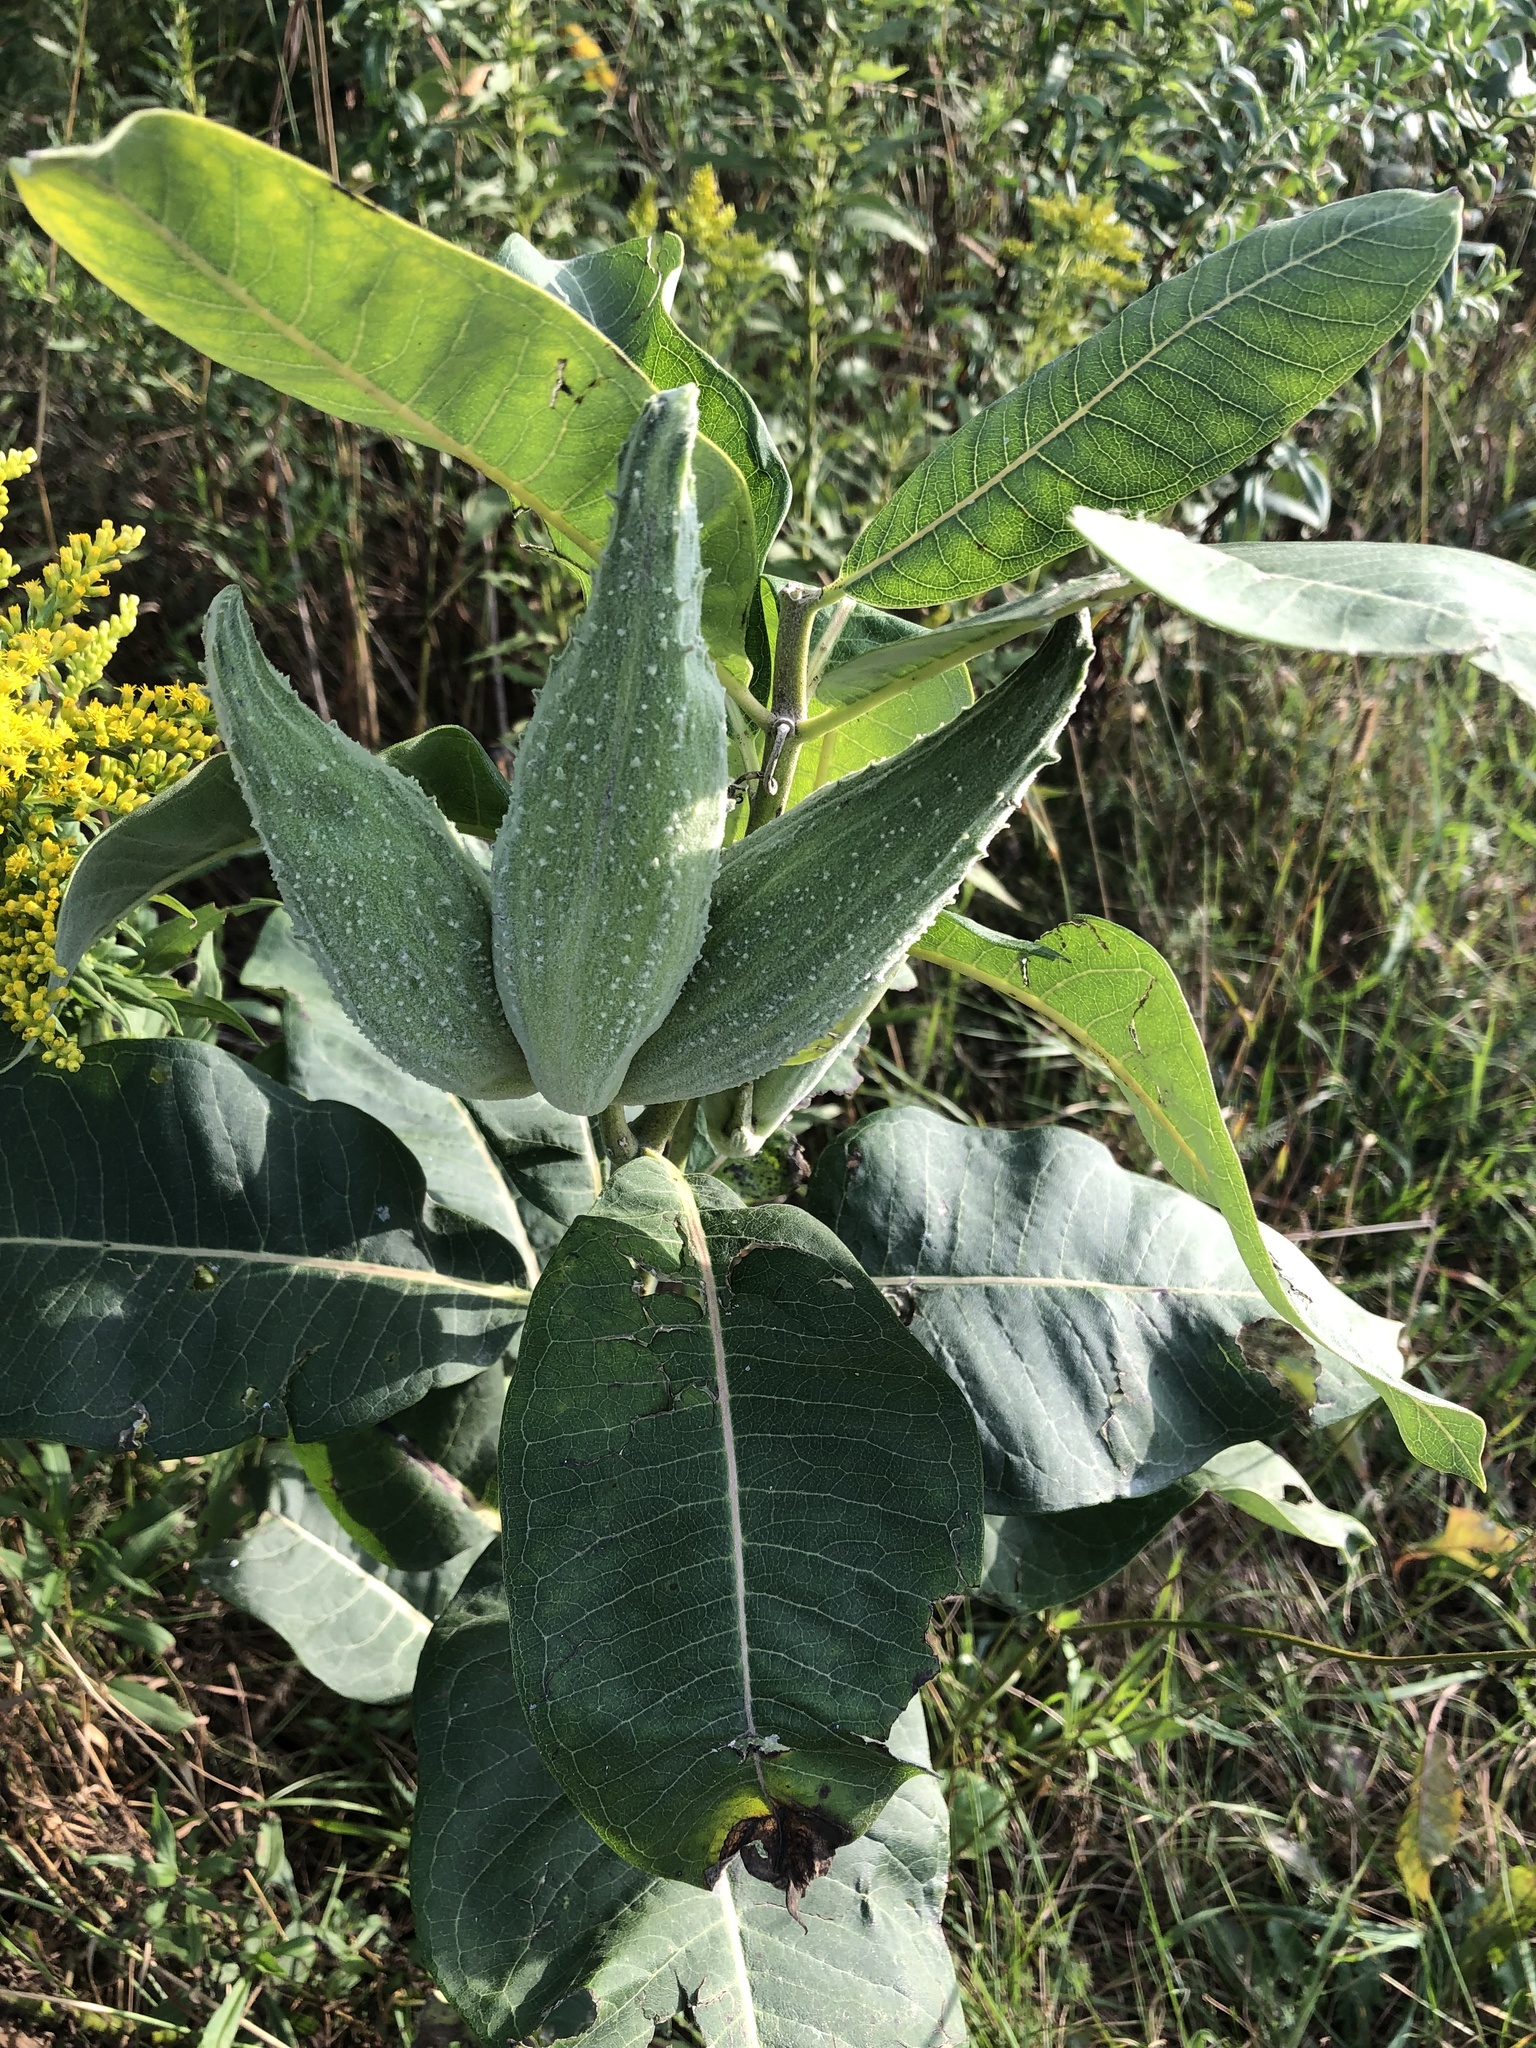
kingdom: Plantae
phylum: Tracheophyta
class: Magnoliopsida
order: Gentianales
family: Apocynaceae
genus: Asclepias
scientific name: Asclepias syriaca
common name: Common milkweed
